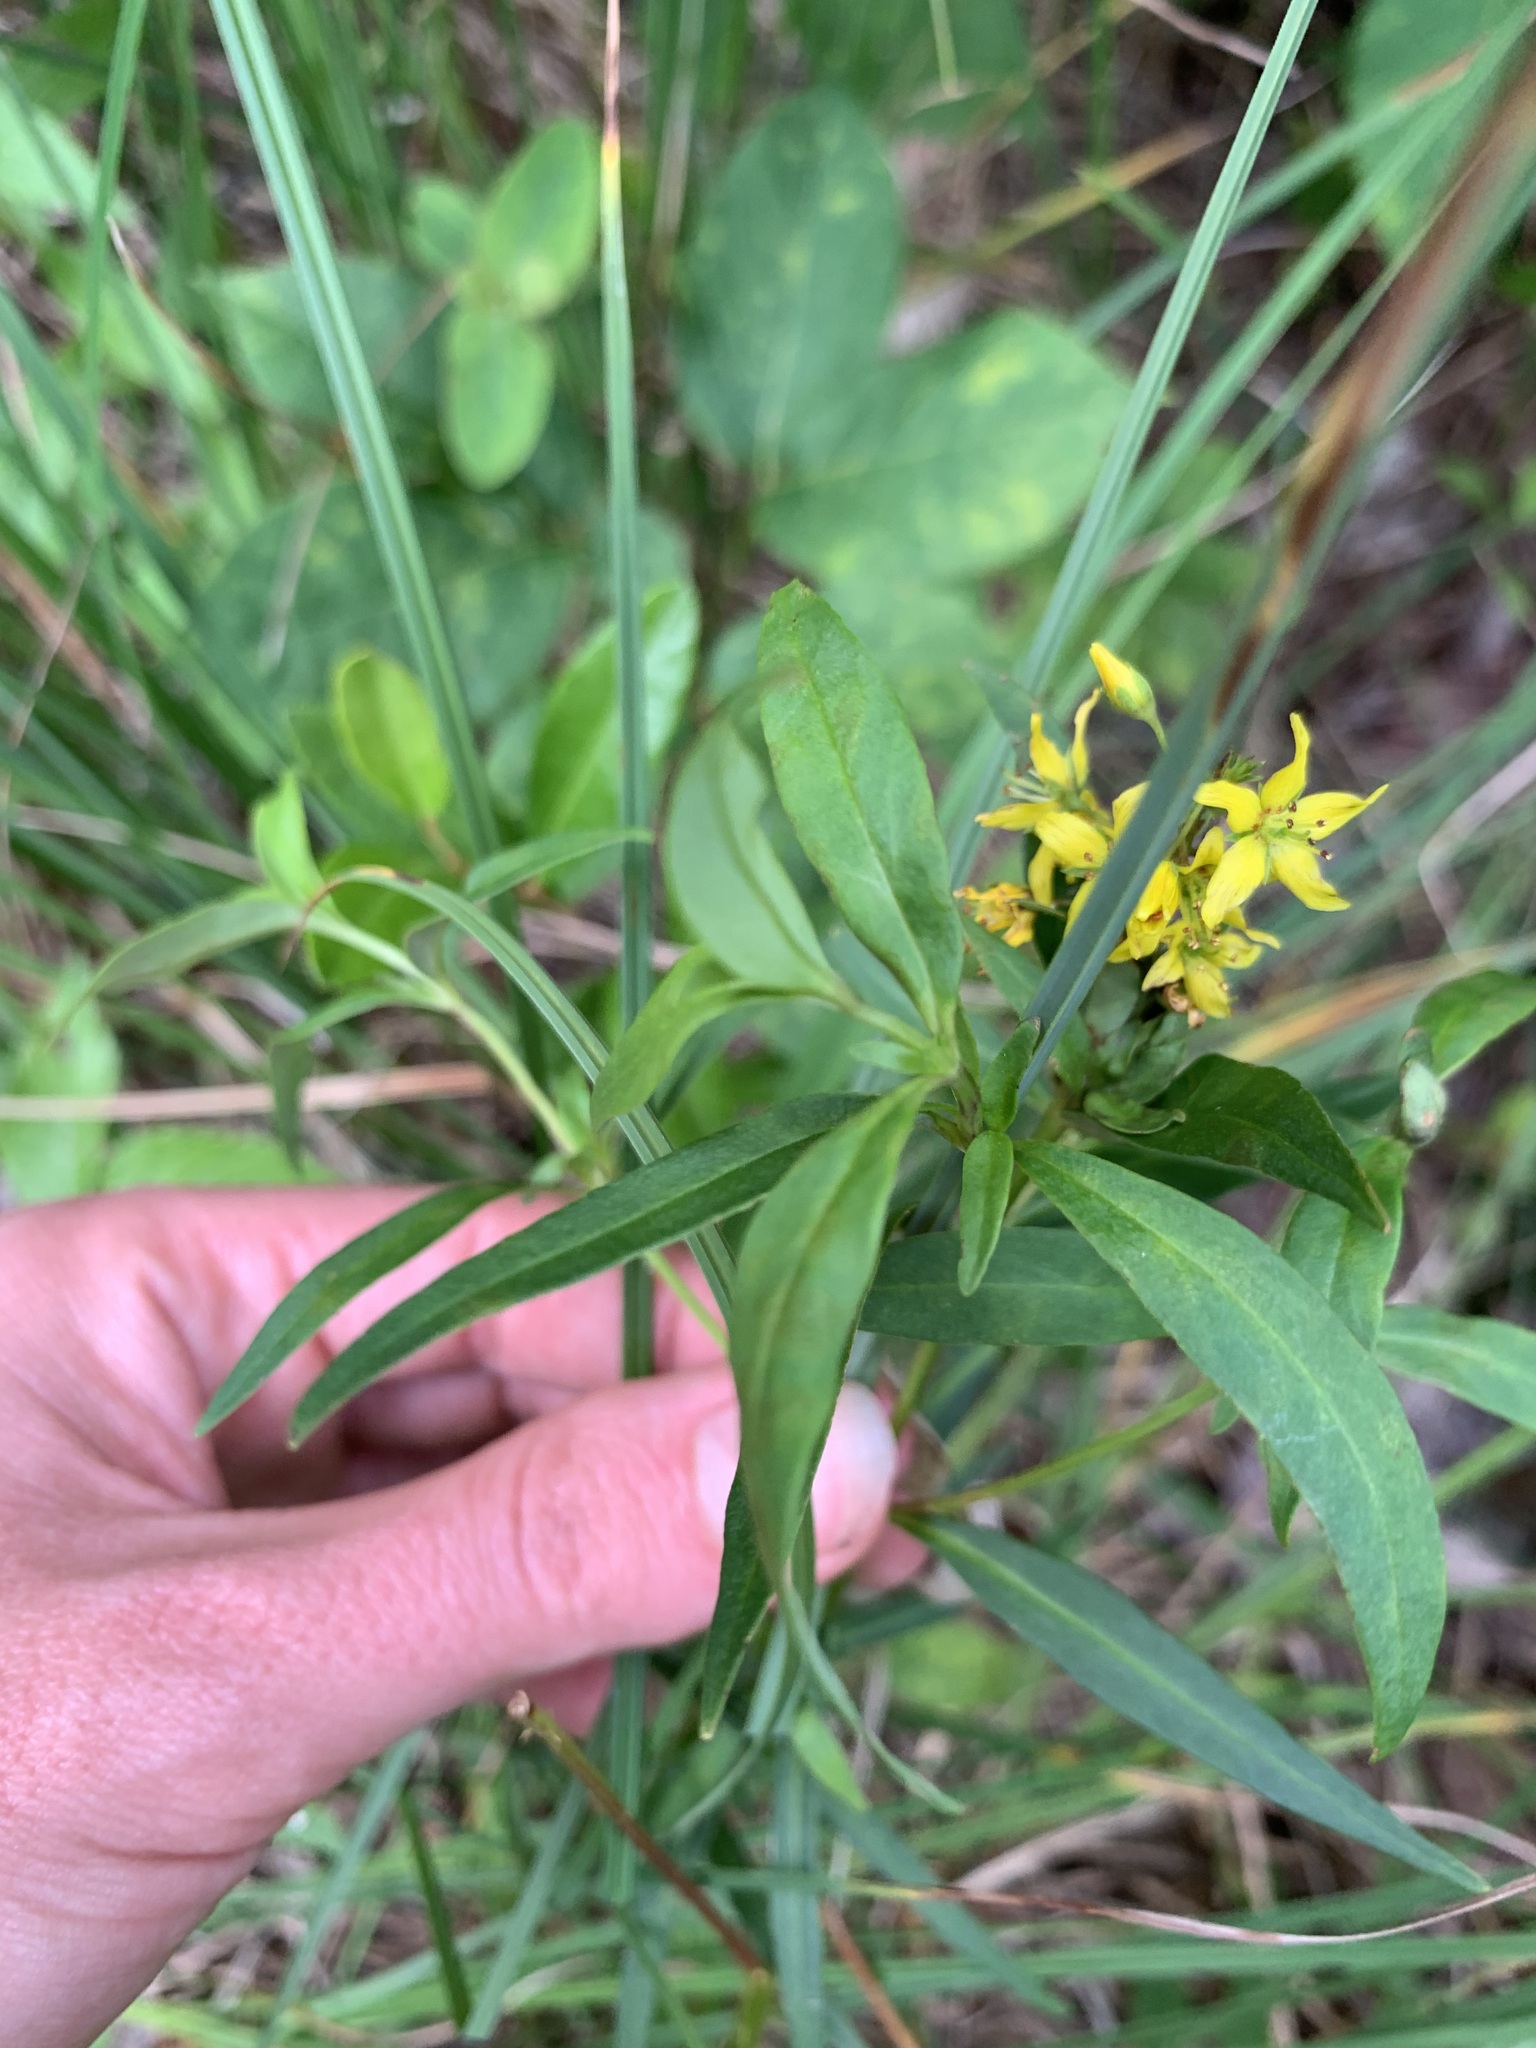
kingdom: Plantae
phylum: Tracheophyta
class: Magnoliopsida
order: Ericales
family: Primulaceae
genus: Lysimachia
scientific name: Lysimachia terrestris
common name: Lake loosestrife
